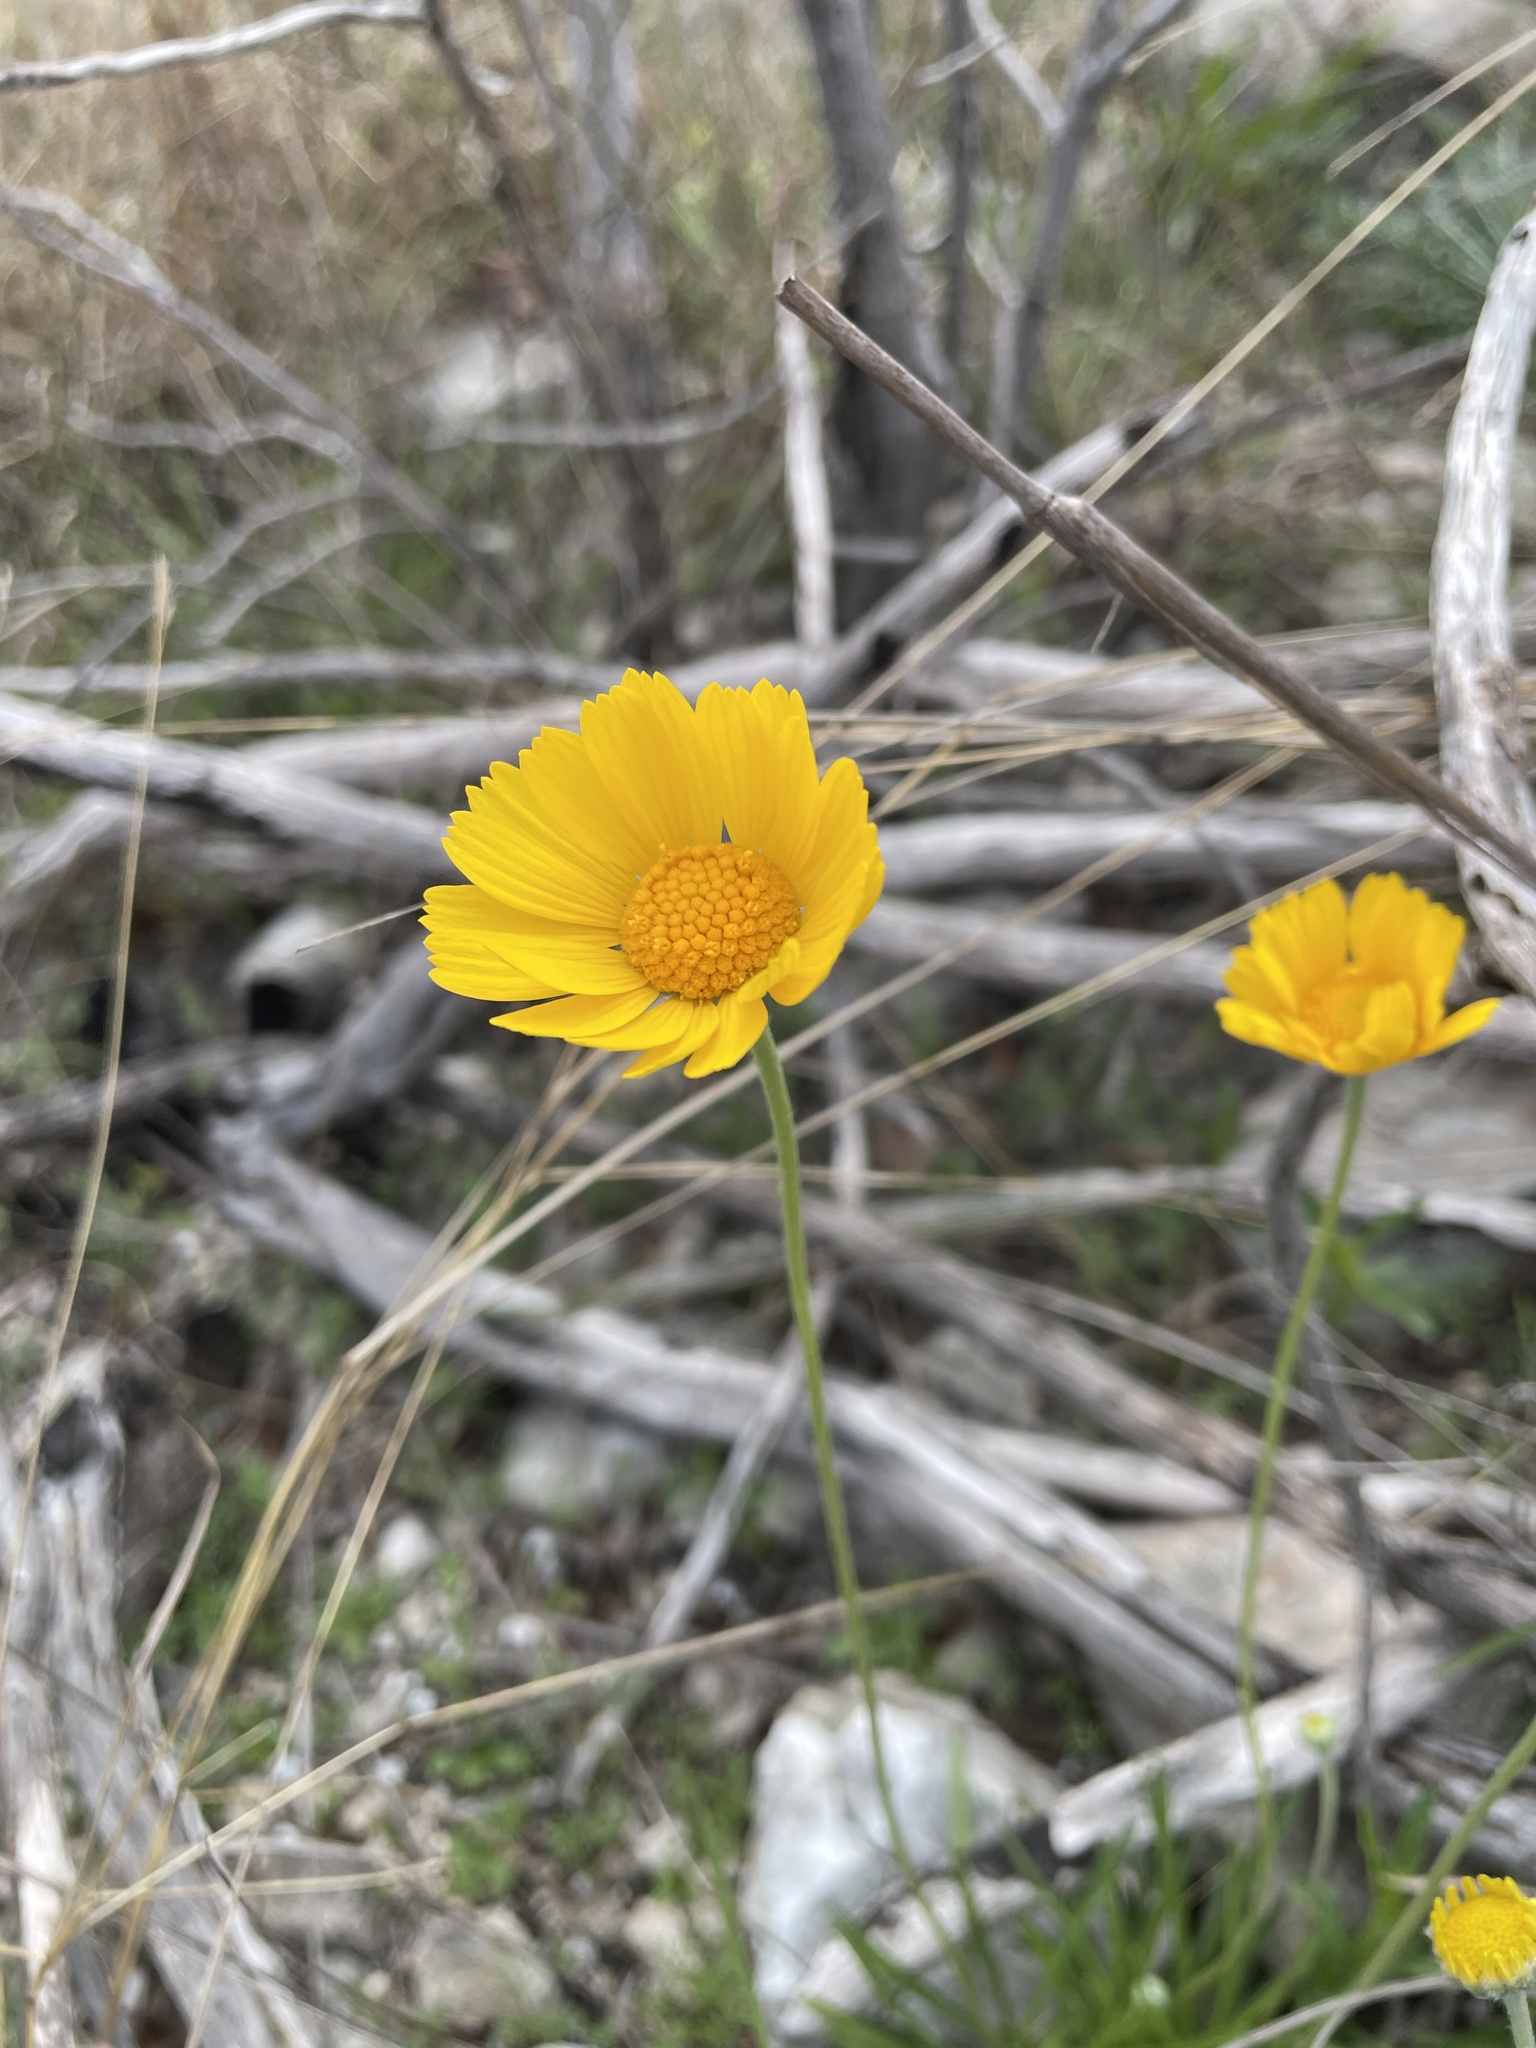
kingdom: Plantae
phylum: Tracheophyta
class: Magnoliopsida
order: Asterales
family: Asteraceae
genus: Tetraneuris
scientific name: Tetraneuris scaposa
